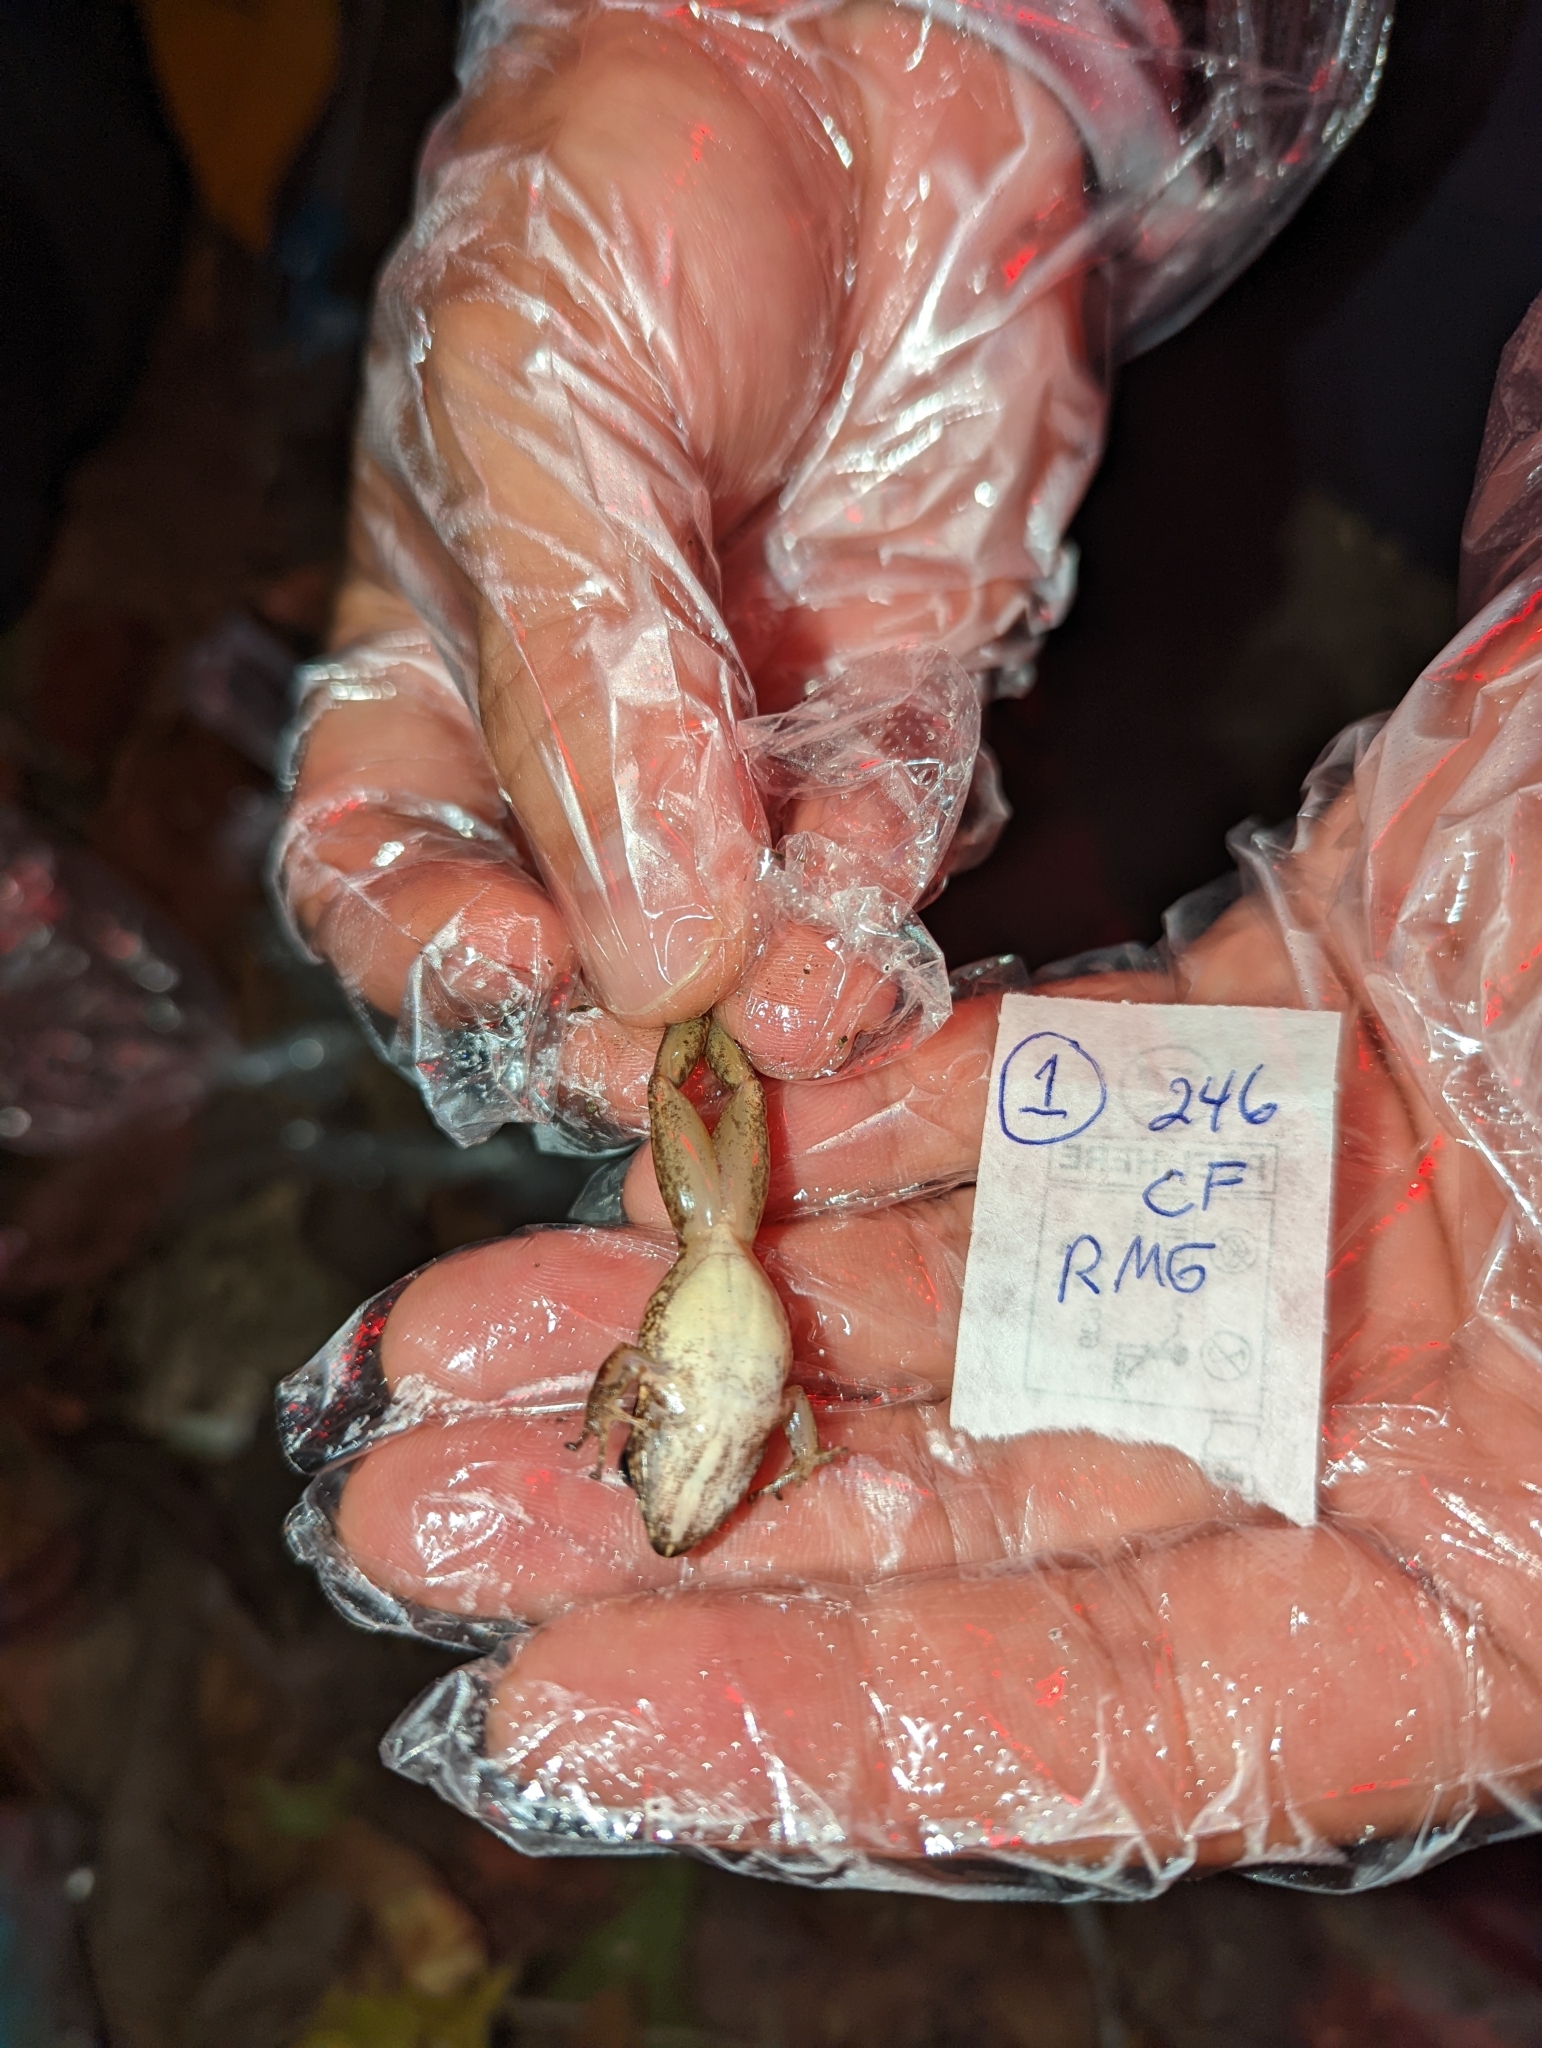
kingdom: Animalia
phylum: Chordata
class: Amphibia
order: Anura
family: Bufonidae
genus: Rhinella
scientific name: Rhinella alata
